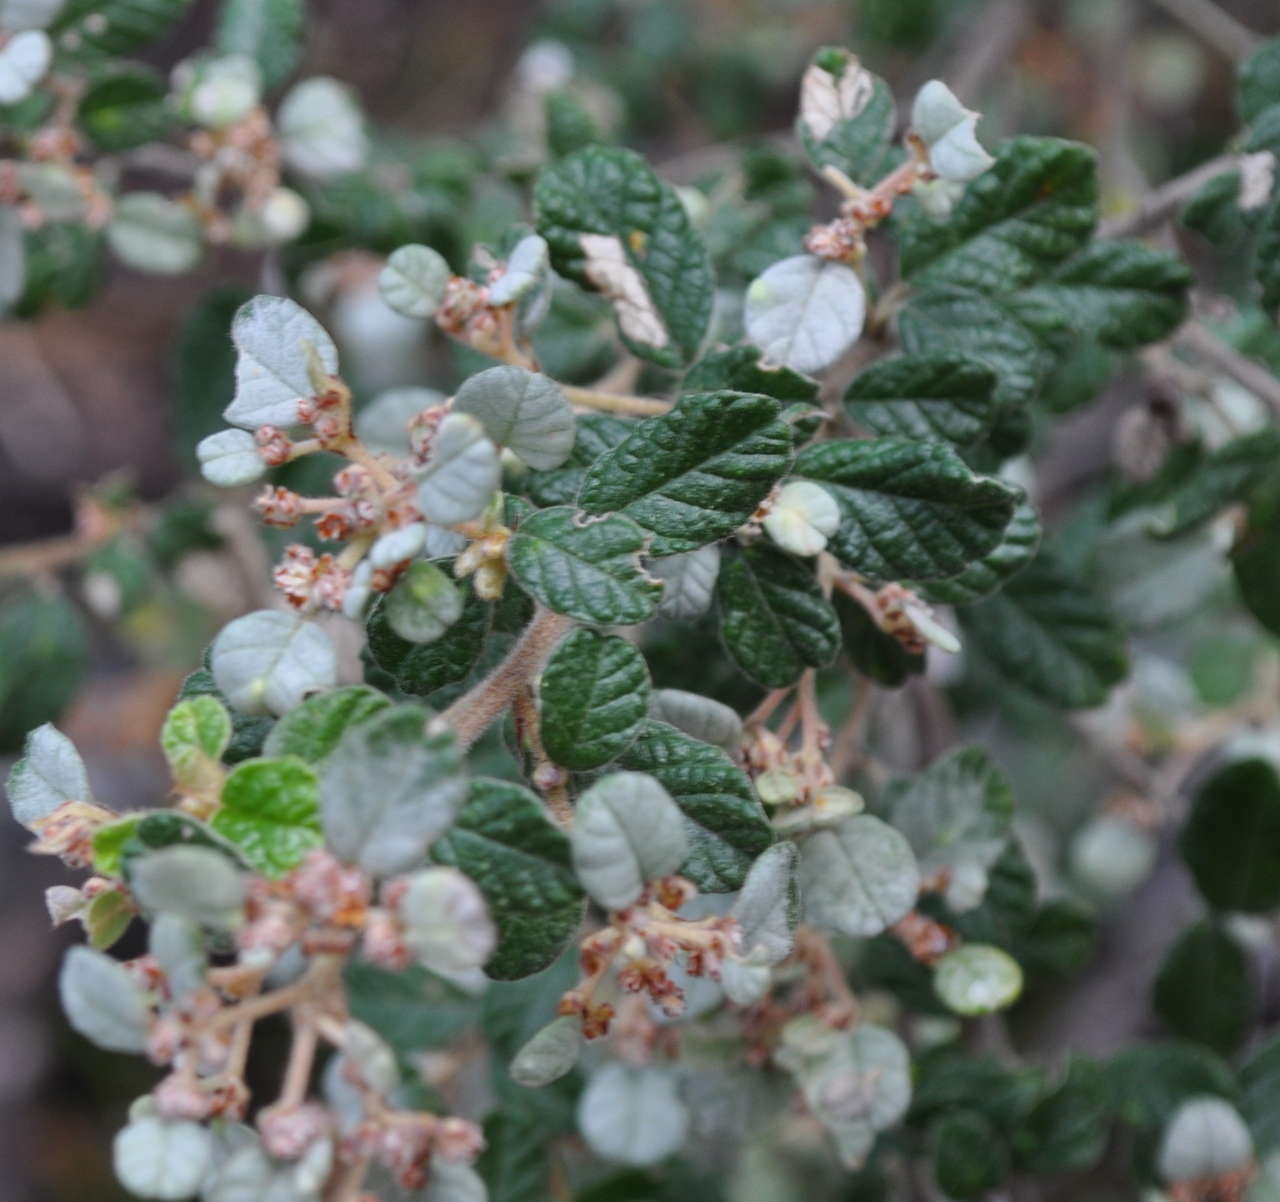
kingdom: Plantae
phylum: Tracheophyta
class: Magnoliopsida
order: Rosales
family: Rhamnaceae
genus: Spyridium
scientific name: Spyridium parvifolium
